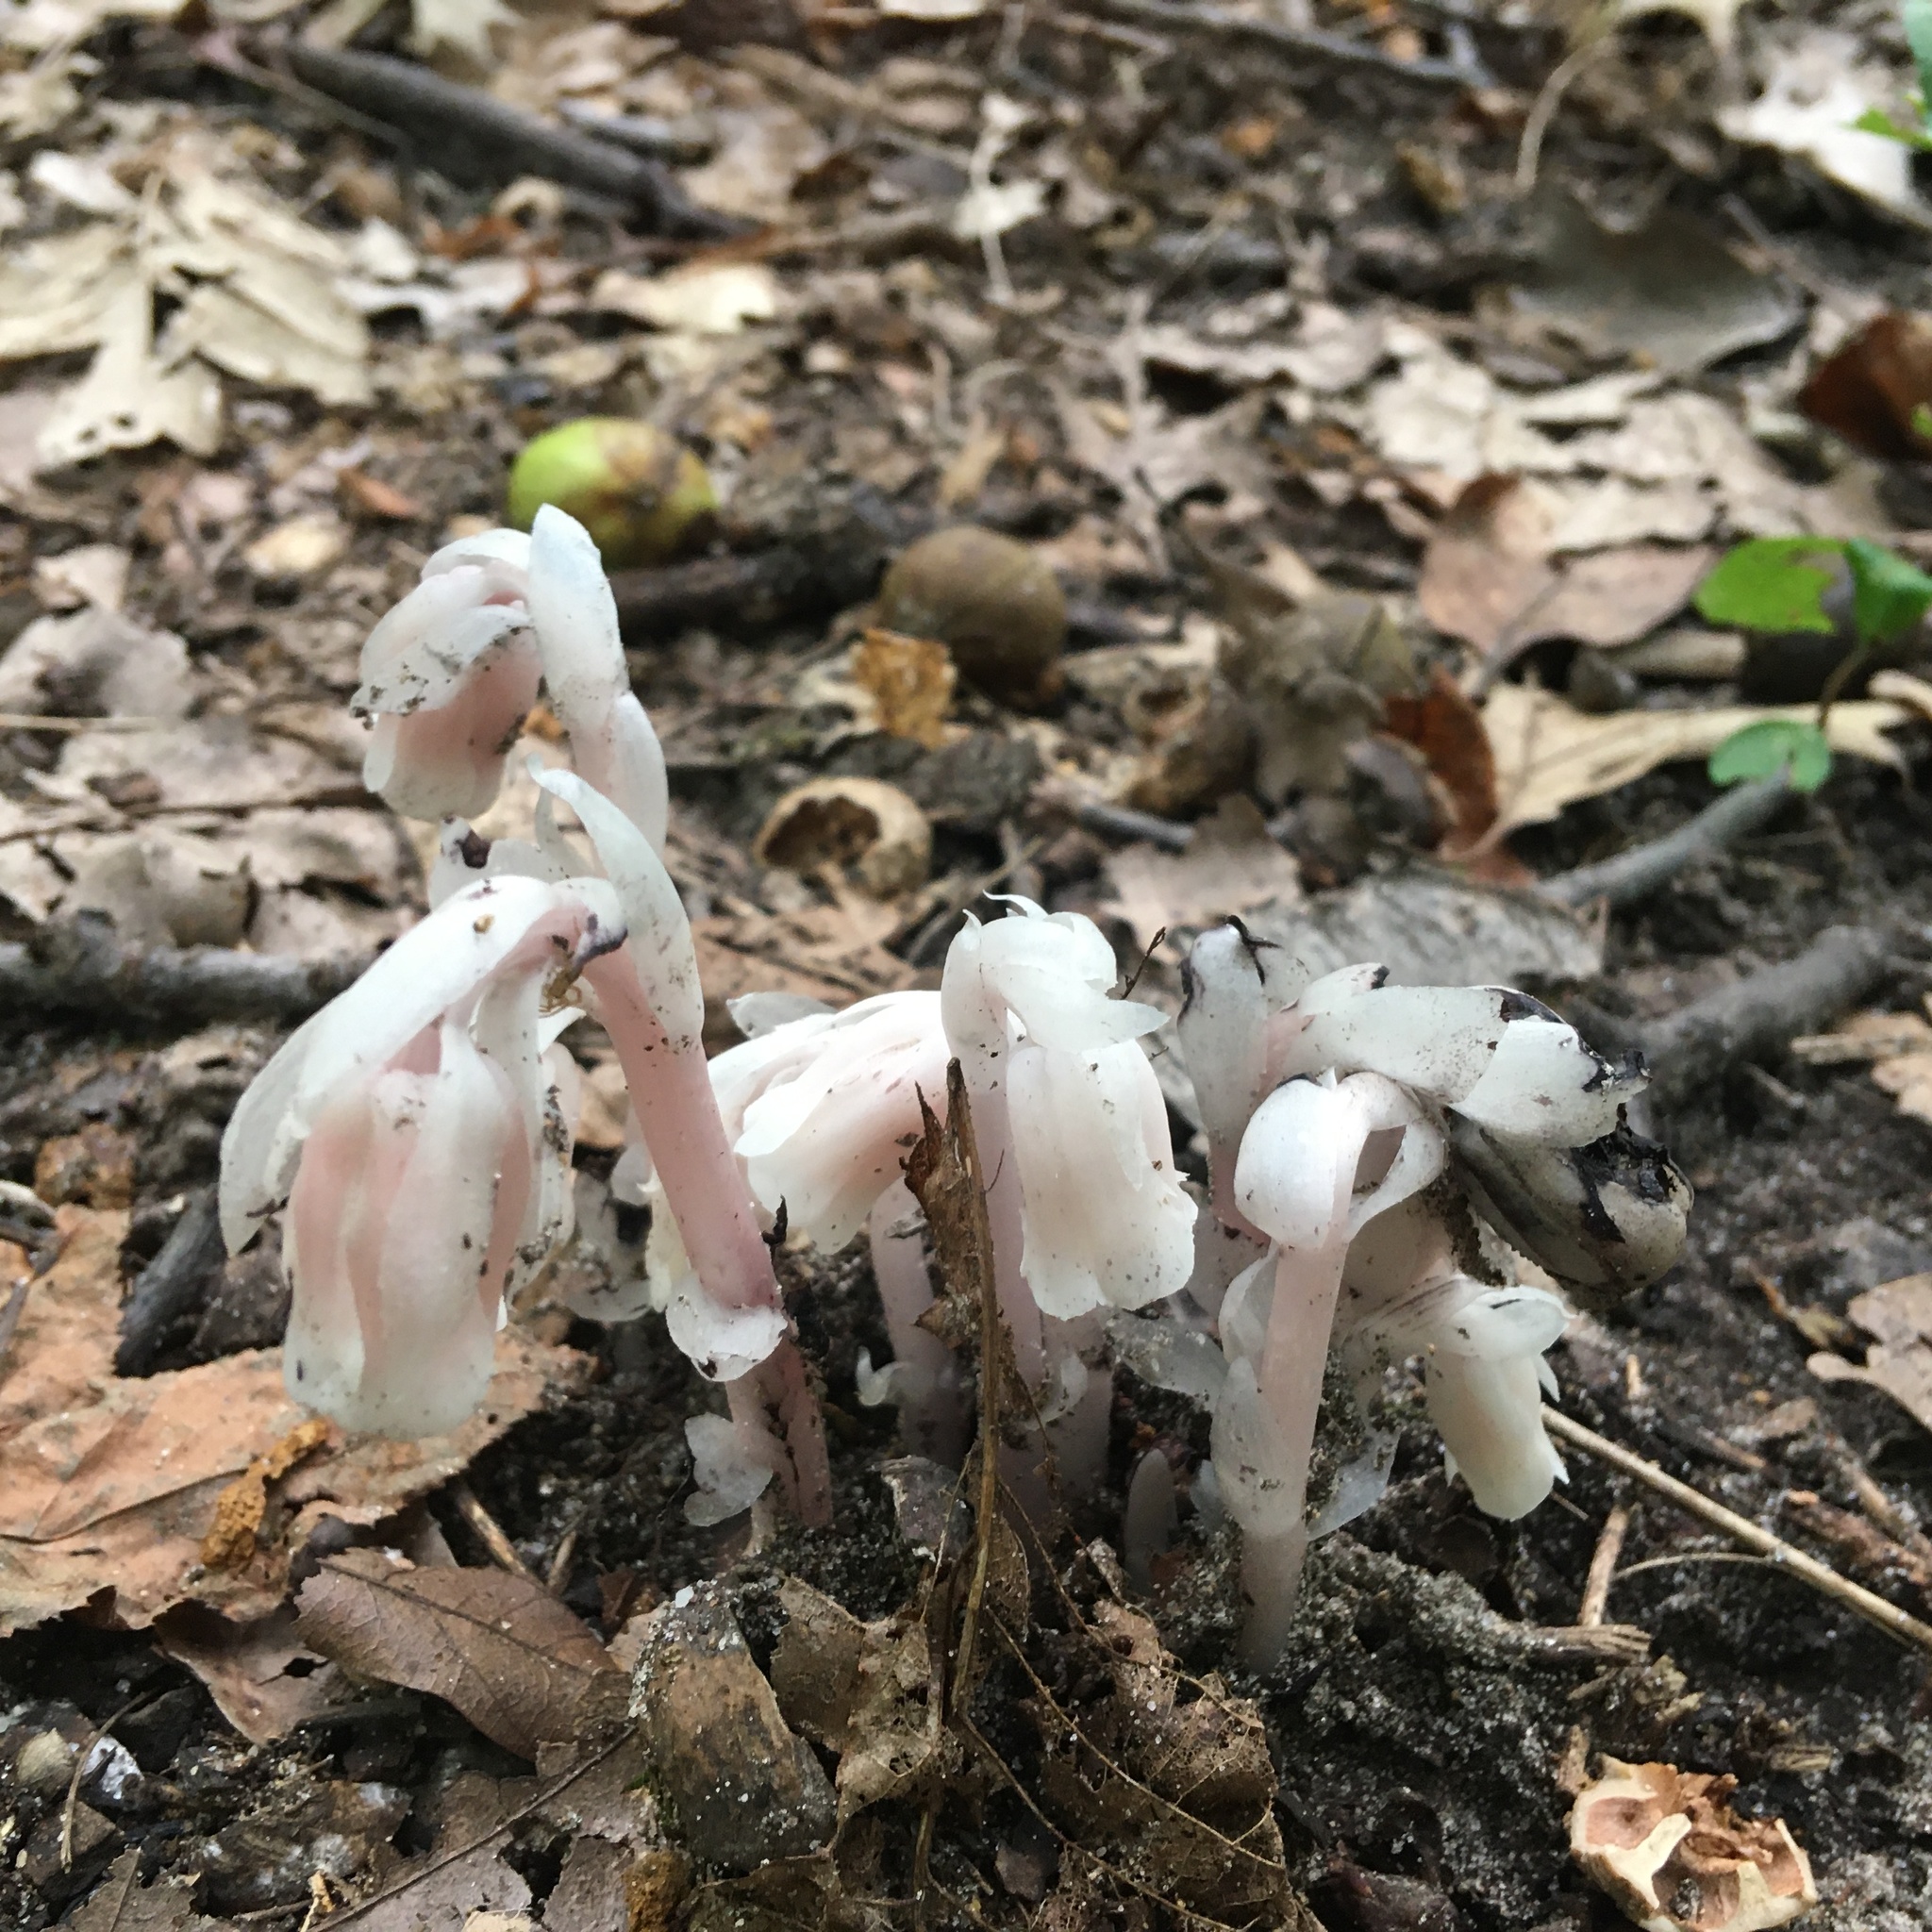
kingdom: Plantae
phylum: Tracheophyta
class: Magnoliopsida
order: Ericales
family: Ericaceae
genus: Monotropa
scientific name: Monotropa uniflora
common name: Convulsion root
